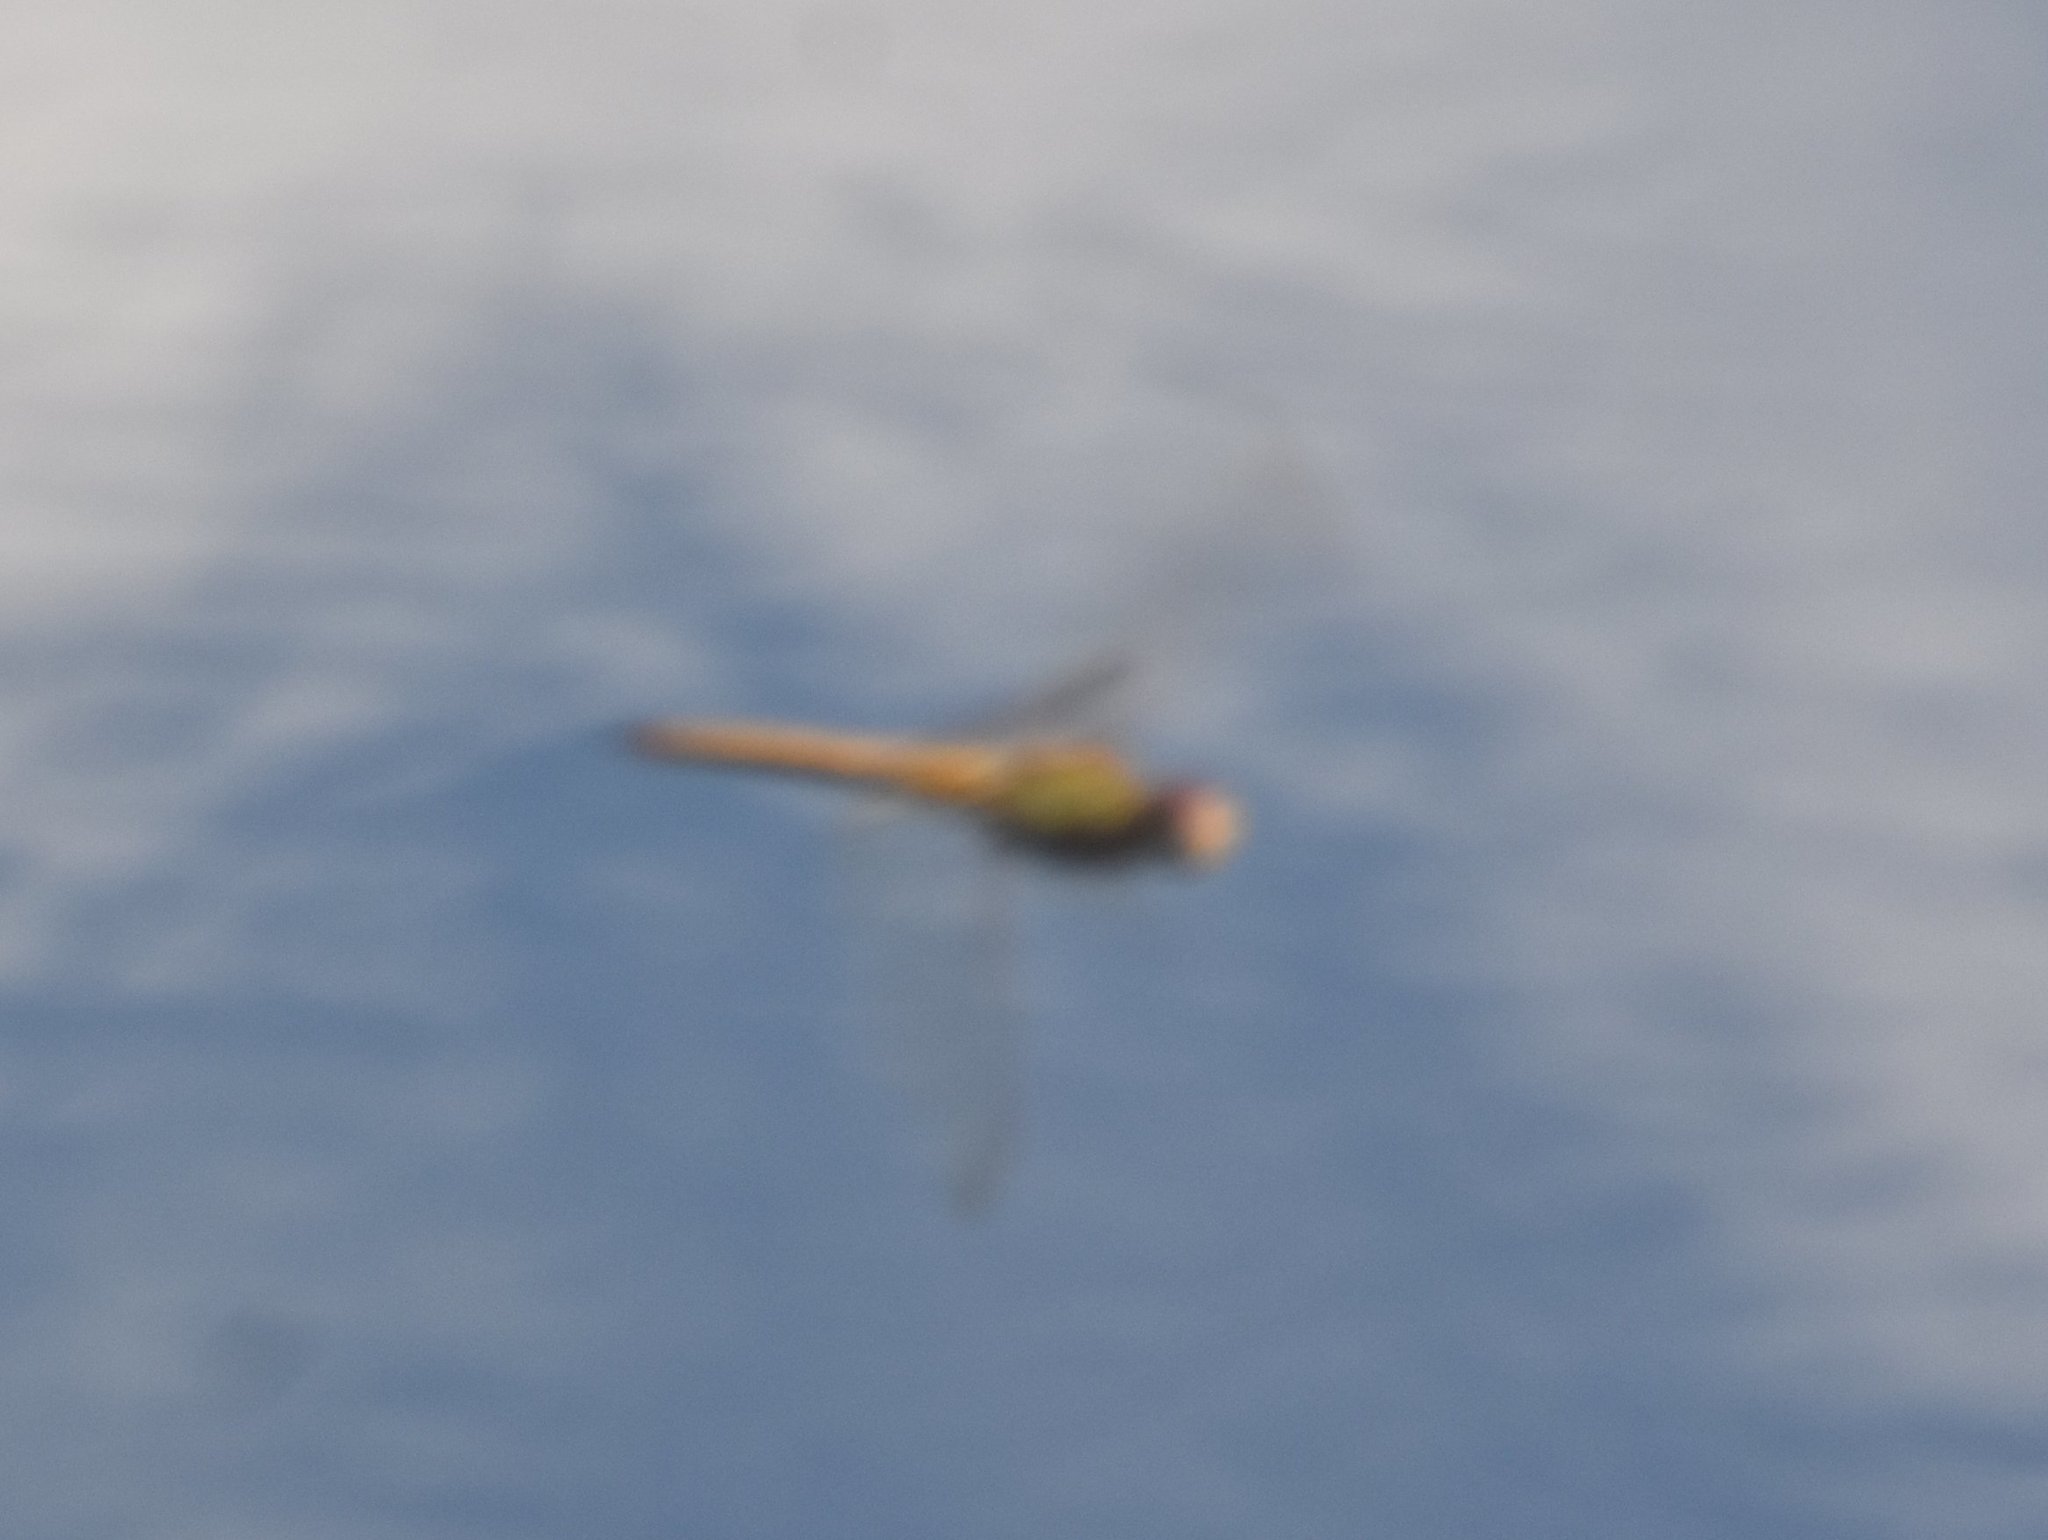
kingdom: Animalia
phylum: Arthropoda
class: Insecta
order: Odonata
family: Libellulidae
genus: Pantala
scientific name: Pantala flavescens
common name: Wandering glider
